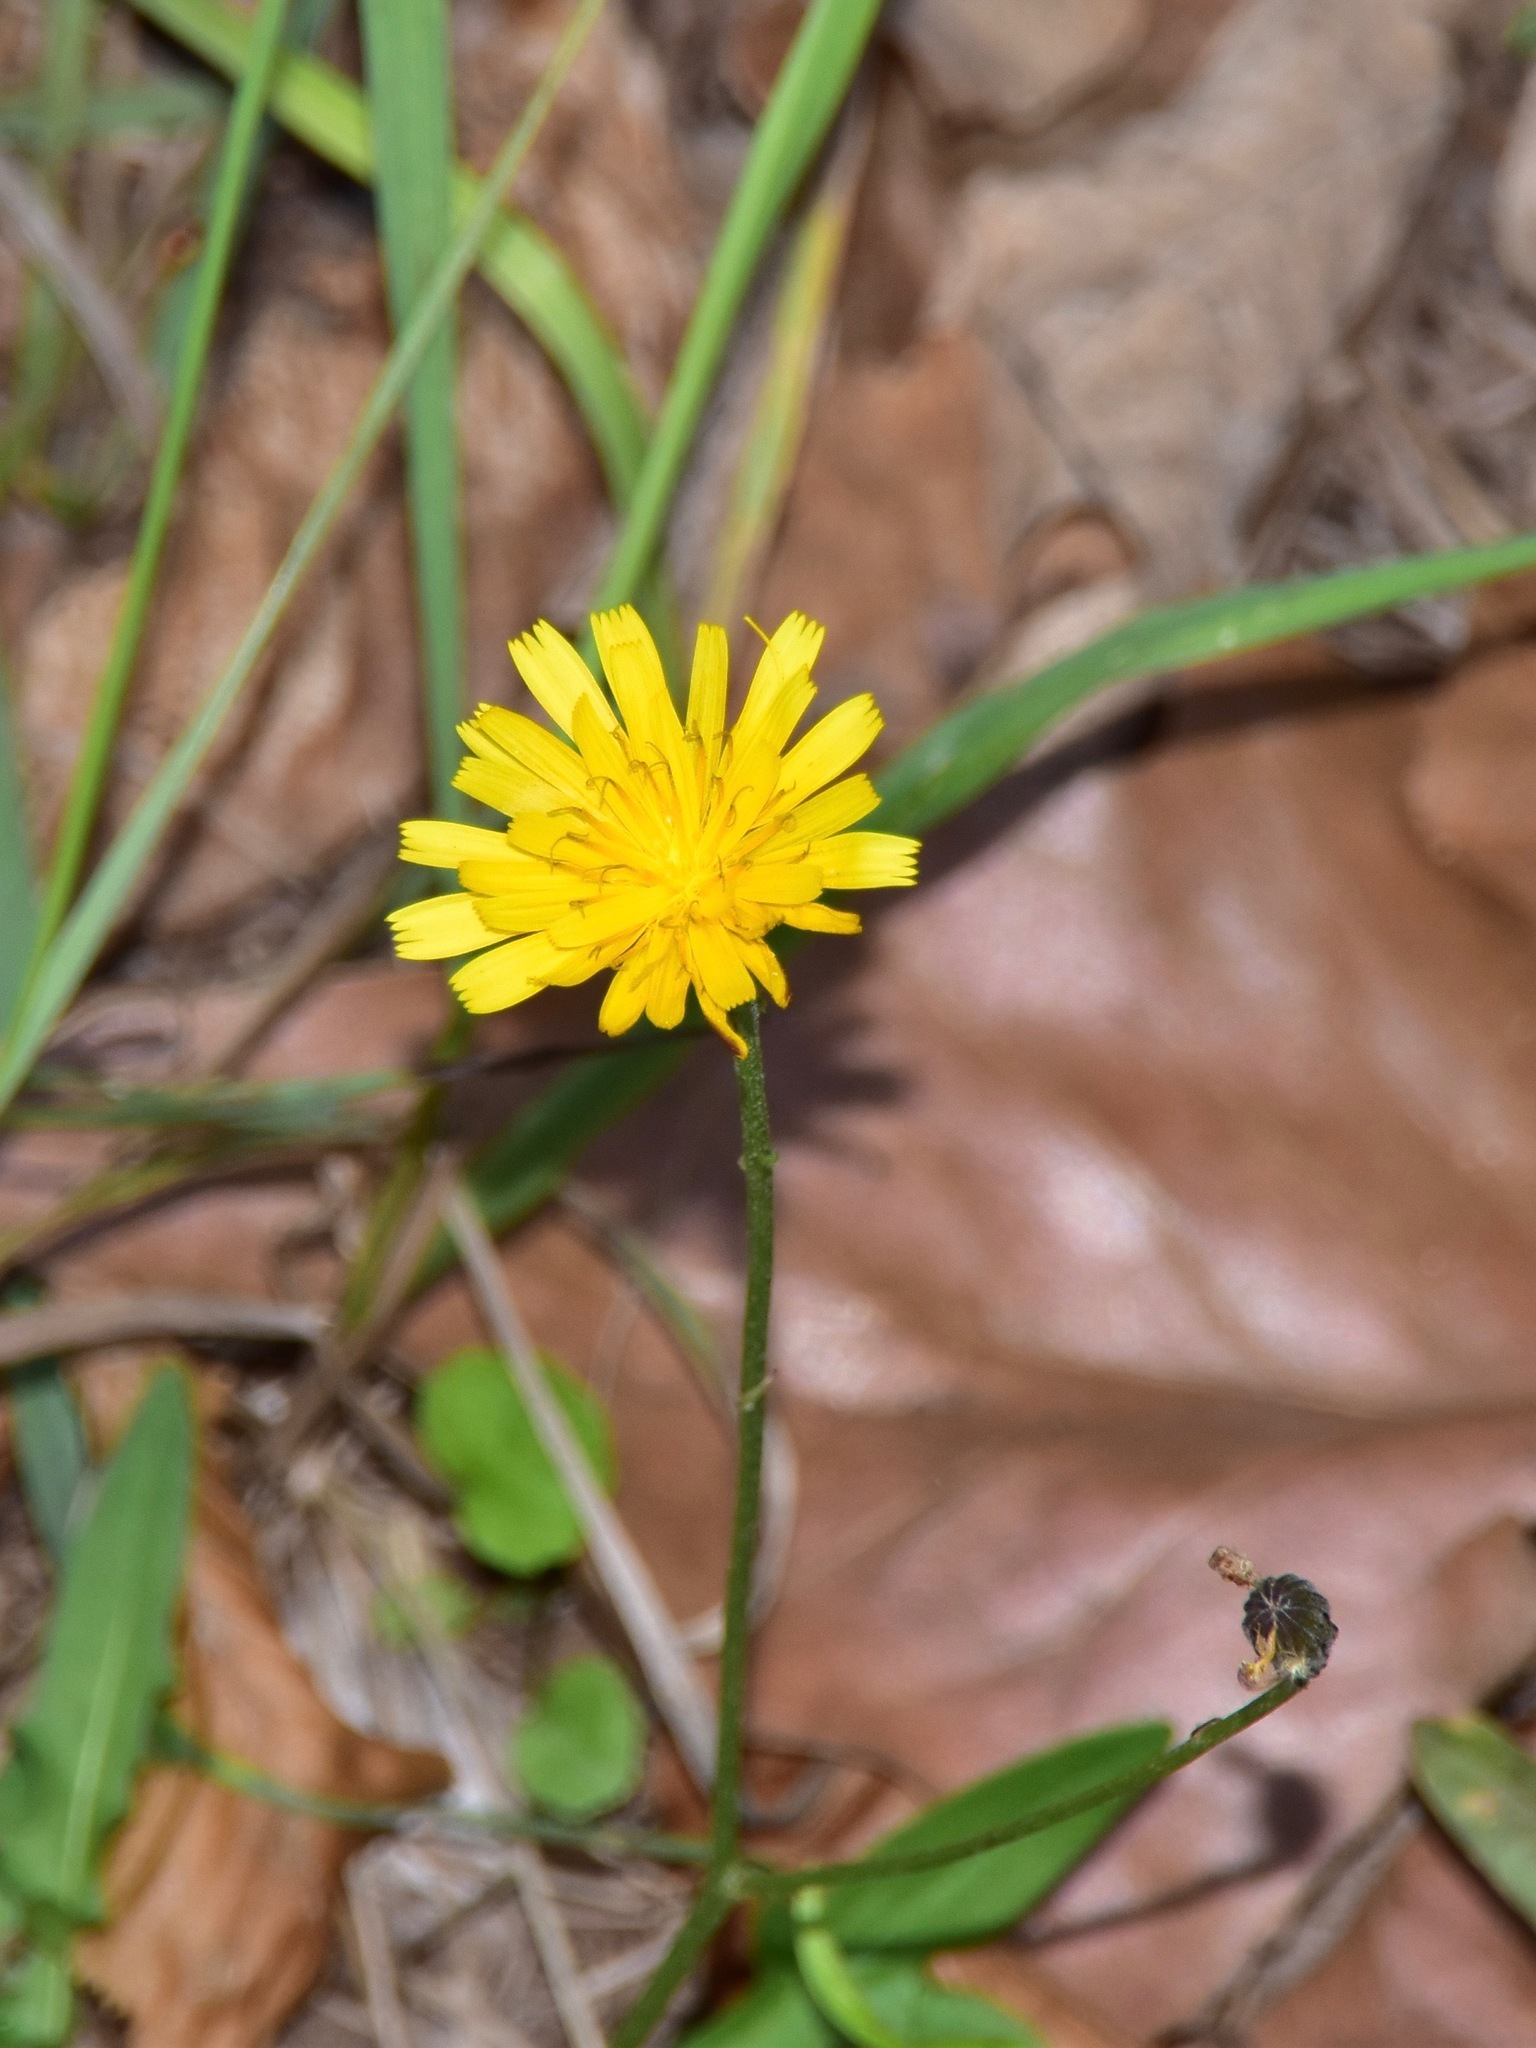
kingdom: Plantae
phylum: Tracheophyta
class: Magnoliopsida
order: Asterales
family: Asteraceae
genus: Crepis
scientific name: Crepis capillaris
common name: Smooth hawksbeard
